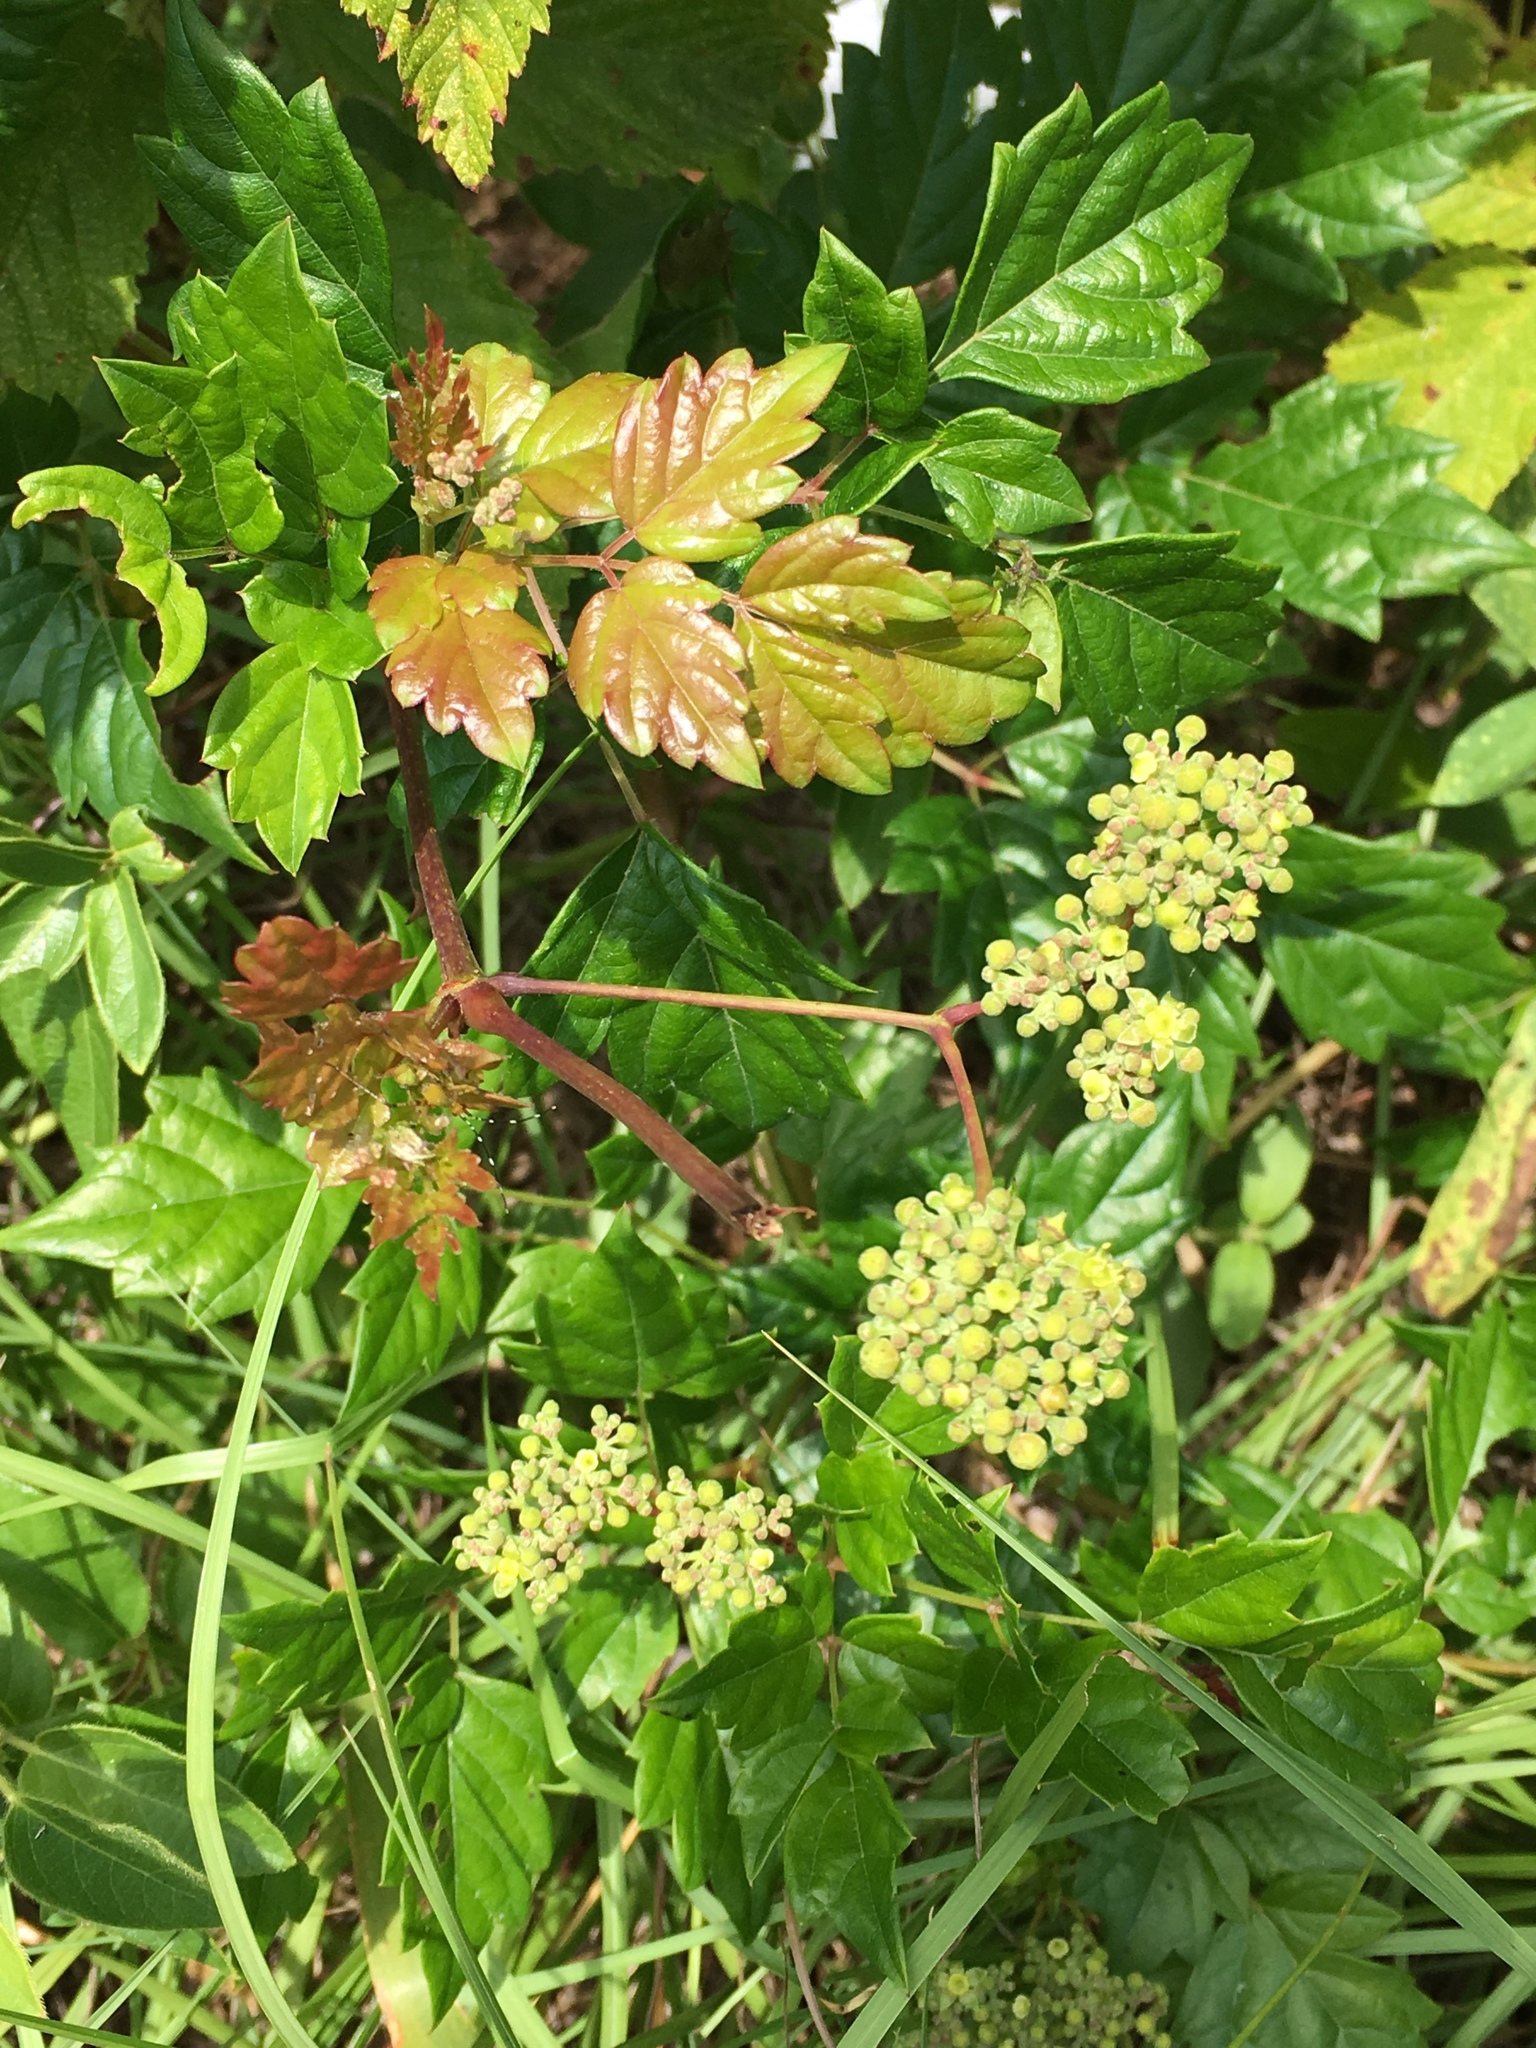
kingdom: Plantae
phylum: Tracheophyta
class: Magnoliopsida
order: Vitales
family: Vitaceae
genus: Nekemias
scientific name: Nekemias arborea
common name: Peppervine
